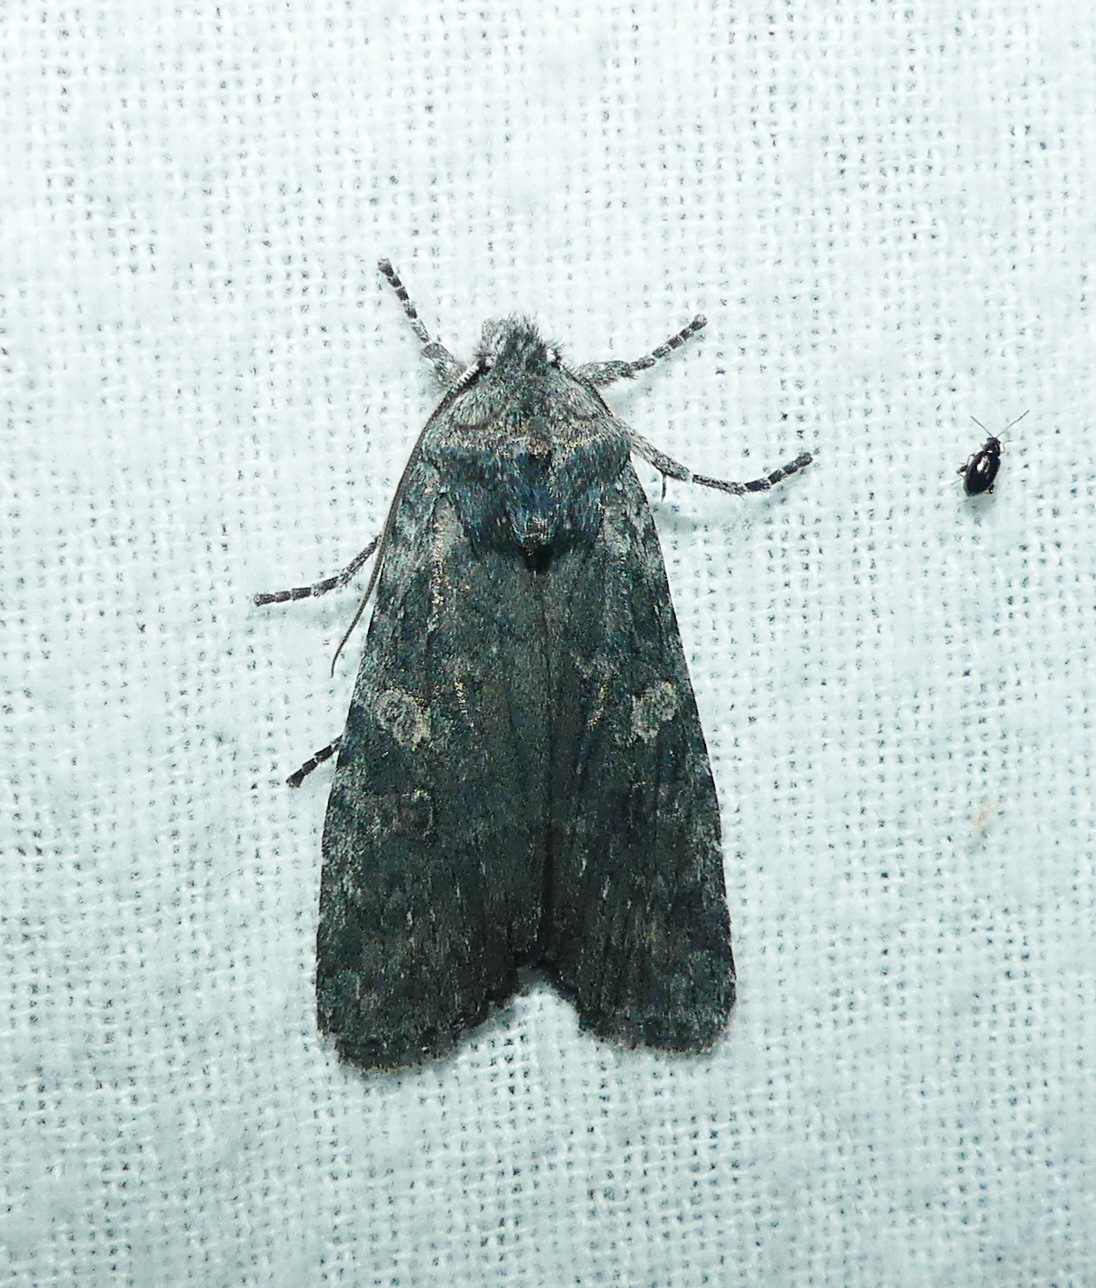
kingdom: Animalia
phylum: Arthropoda
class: Insecta
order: Lepidoptera
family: Noctuidae
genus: Lithophane
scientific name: Lithophane grotei
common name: Grote's pinion moth
